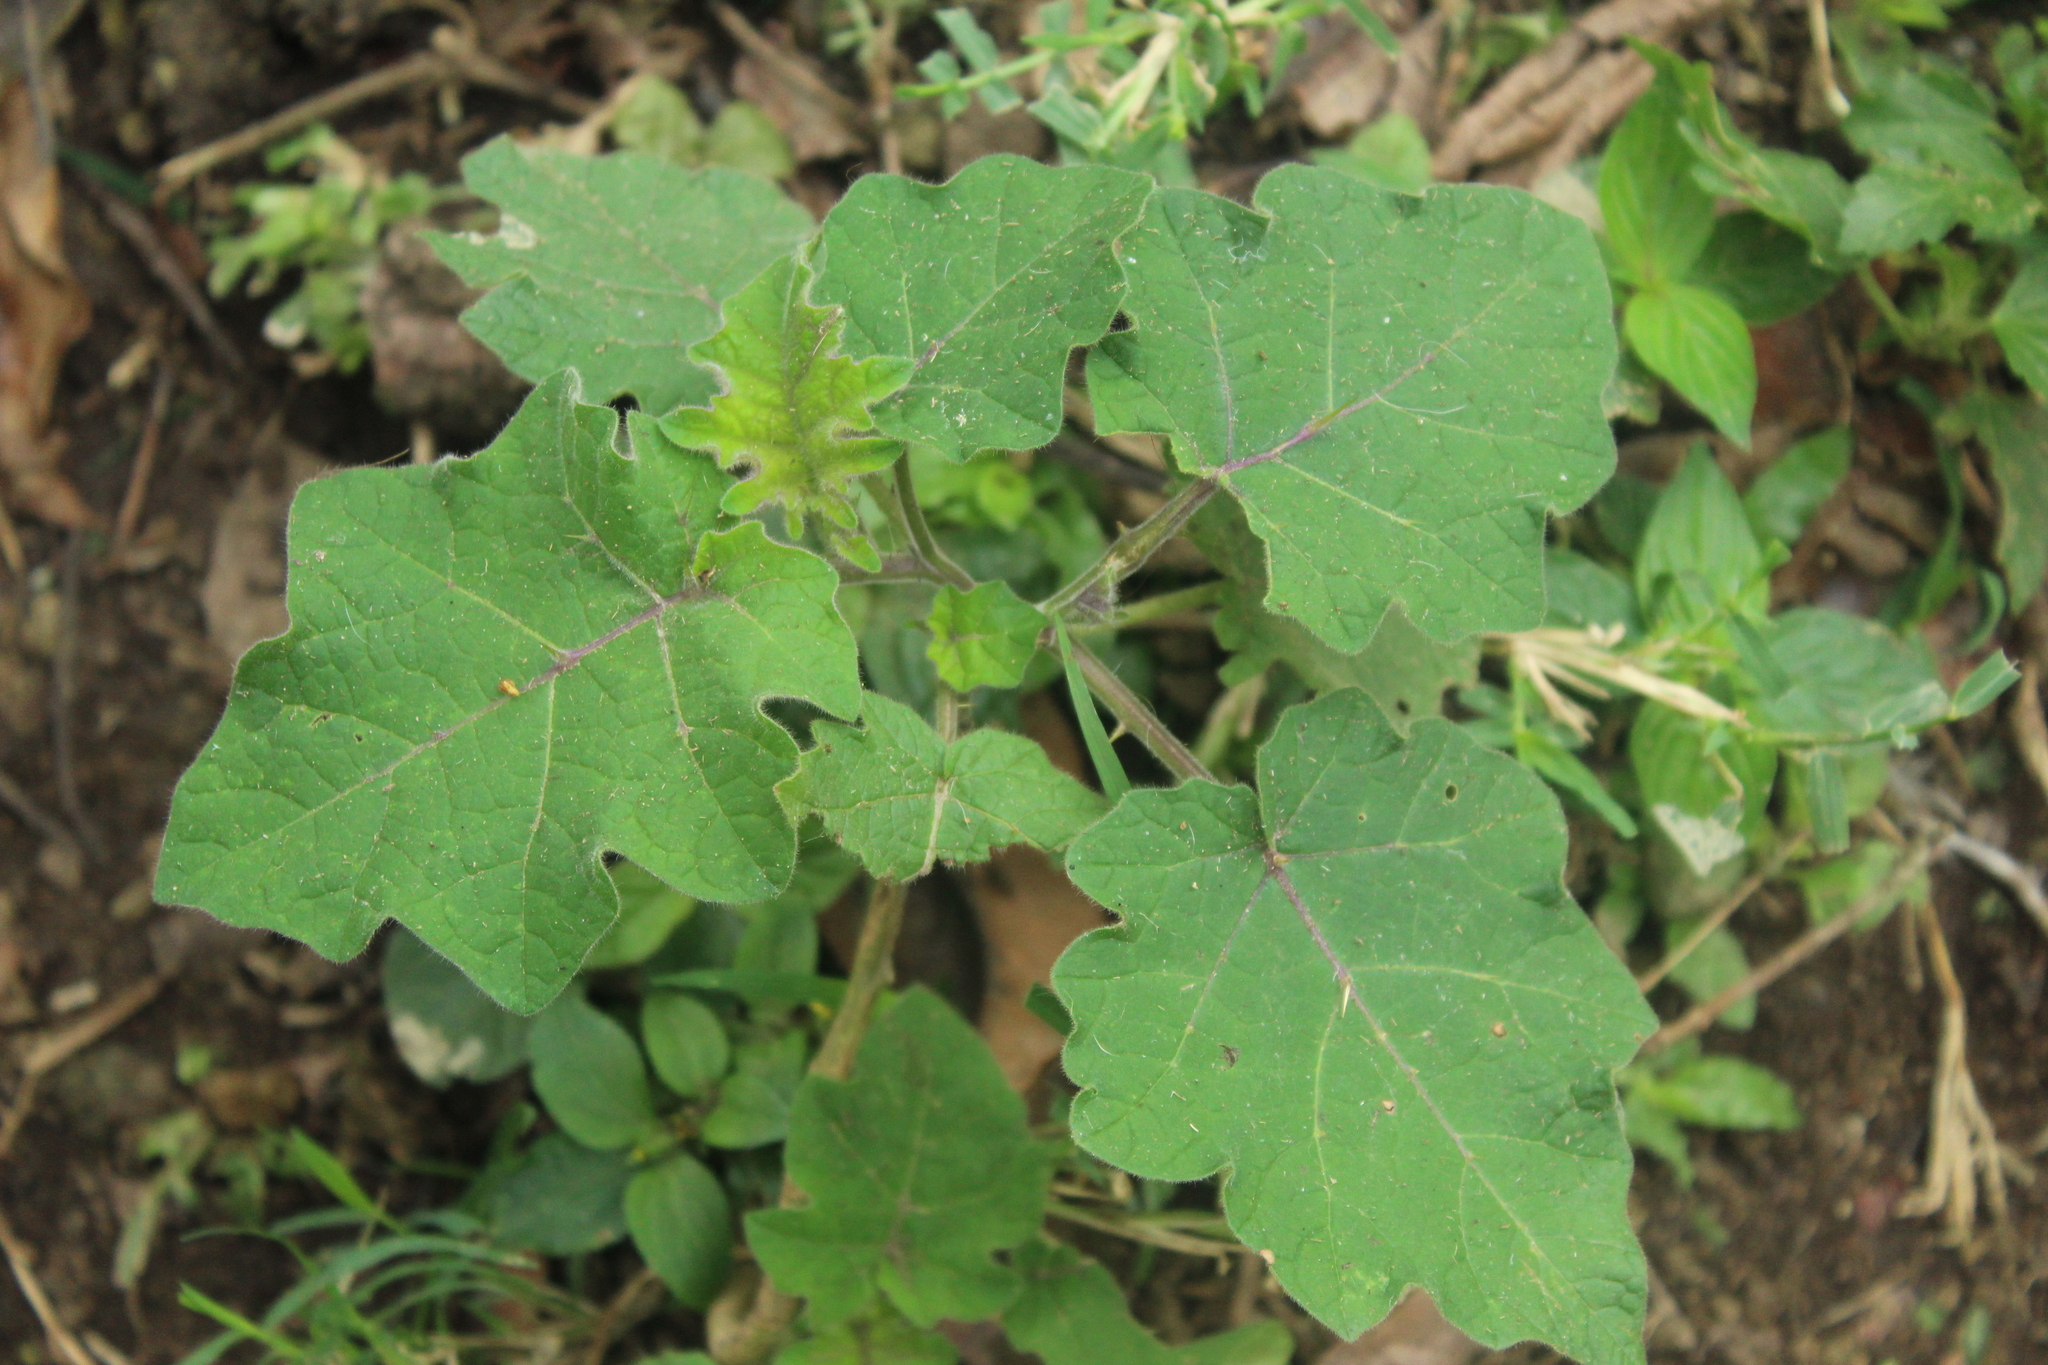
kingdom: Plantae
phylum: Tracheophyta
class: Magnoliopsida
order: Solanales
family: Solanaceae
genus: Solanum
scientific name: Solanum viarum
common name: Tropical soda apple
